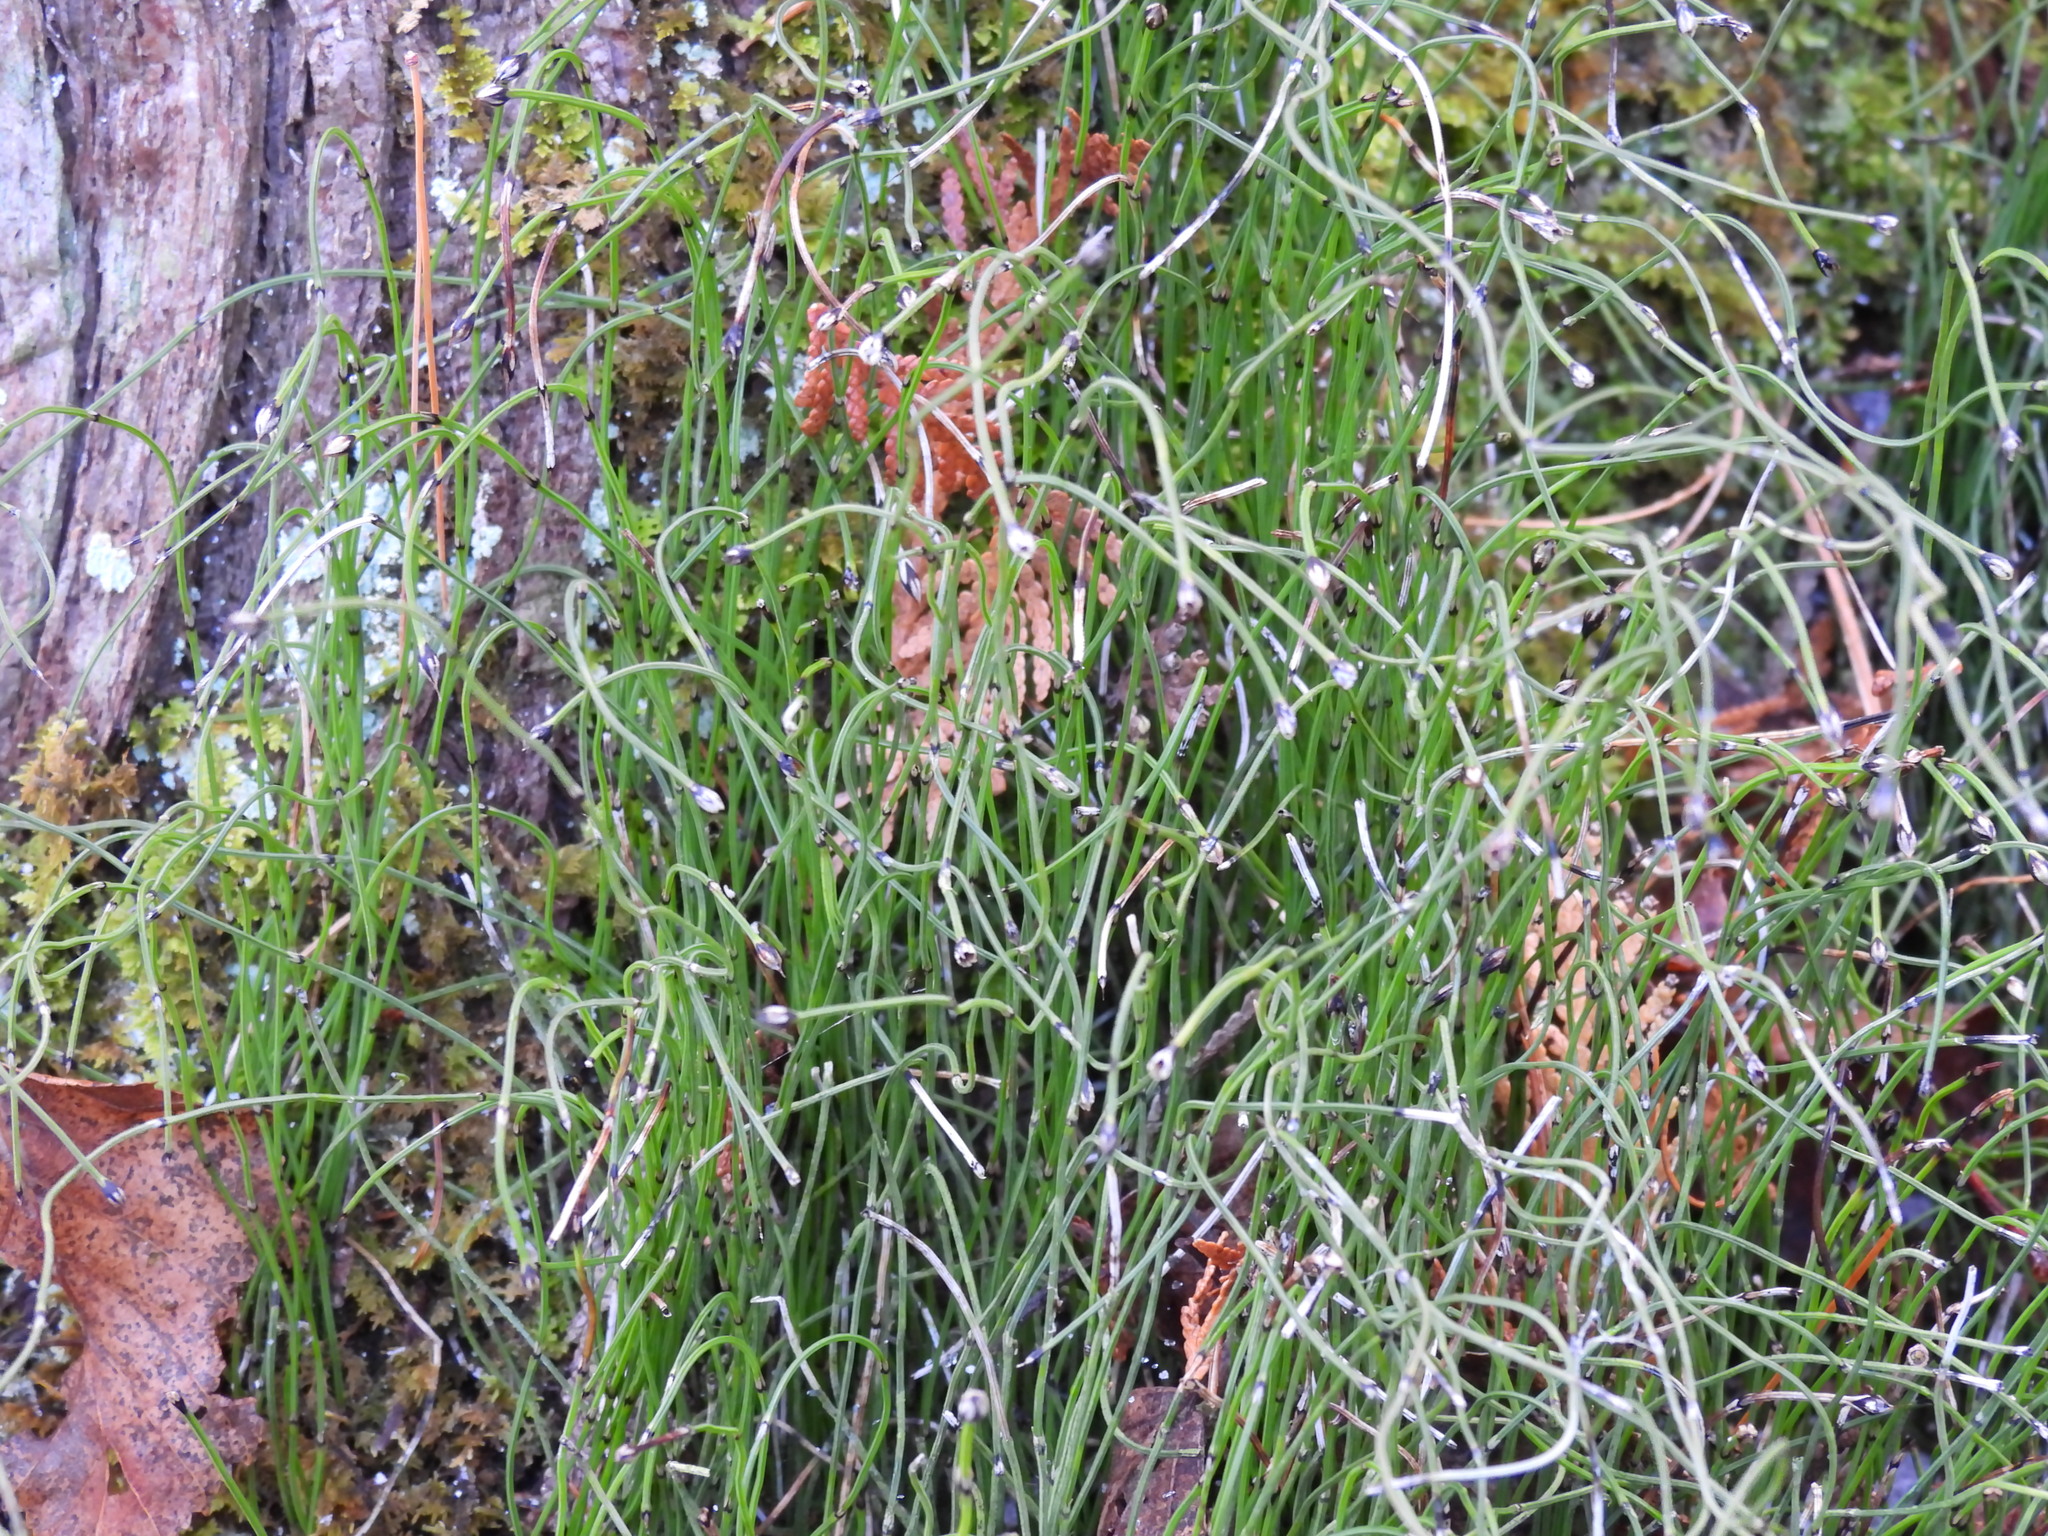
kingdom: Plantae
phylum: Tracheophyta
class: Polypodiopsida
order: Equisetales
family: Equisetaceae
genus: Equisetum
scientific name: Equisetum scirpoides
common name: Delicate horsetail
